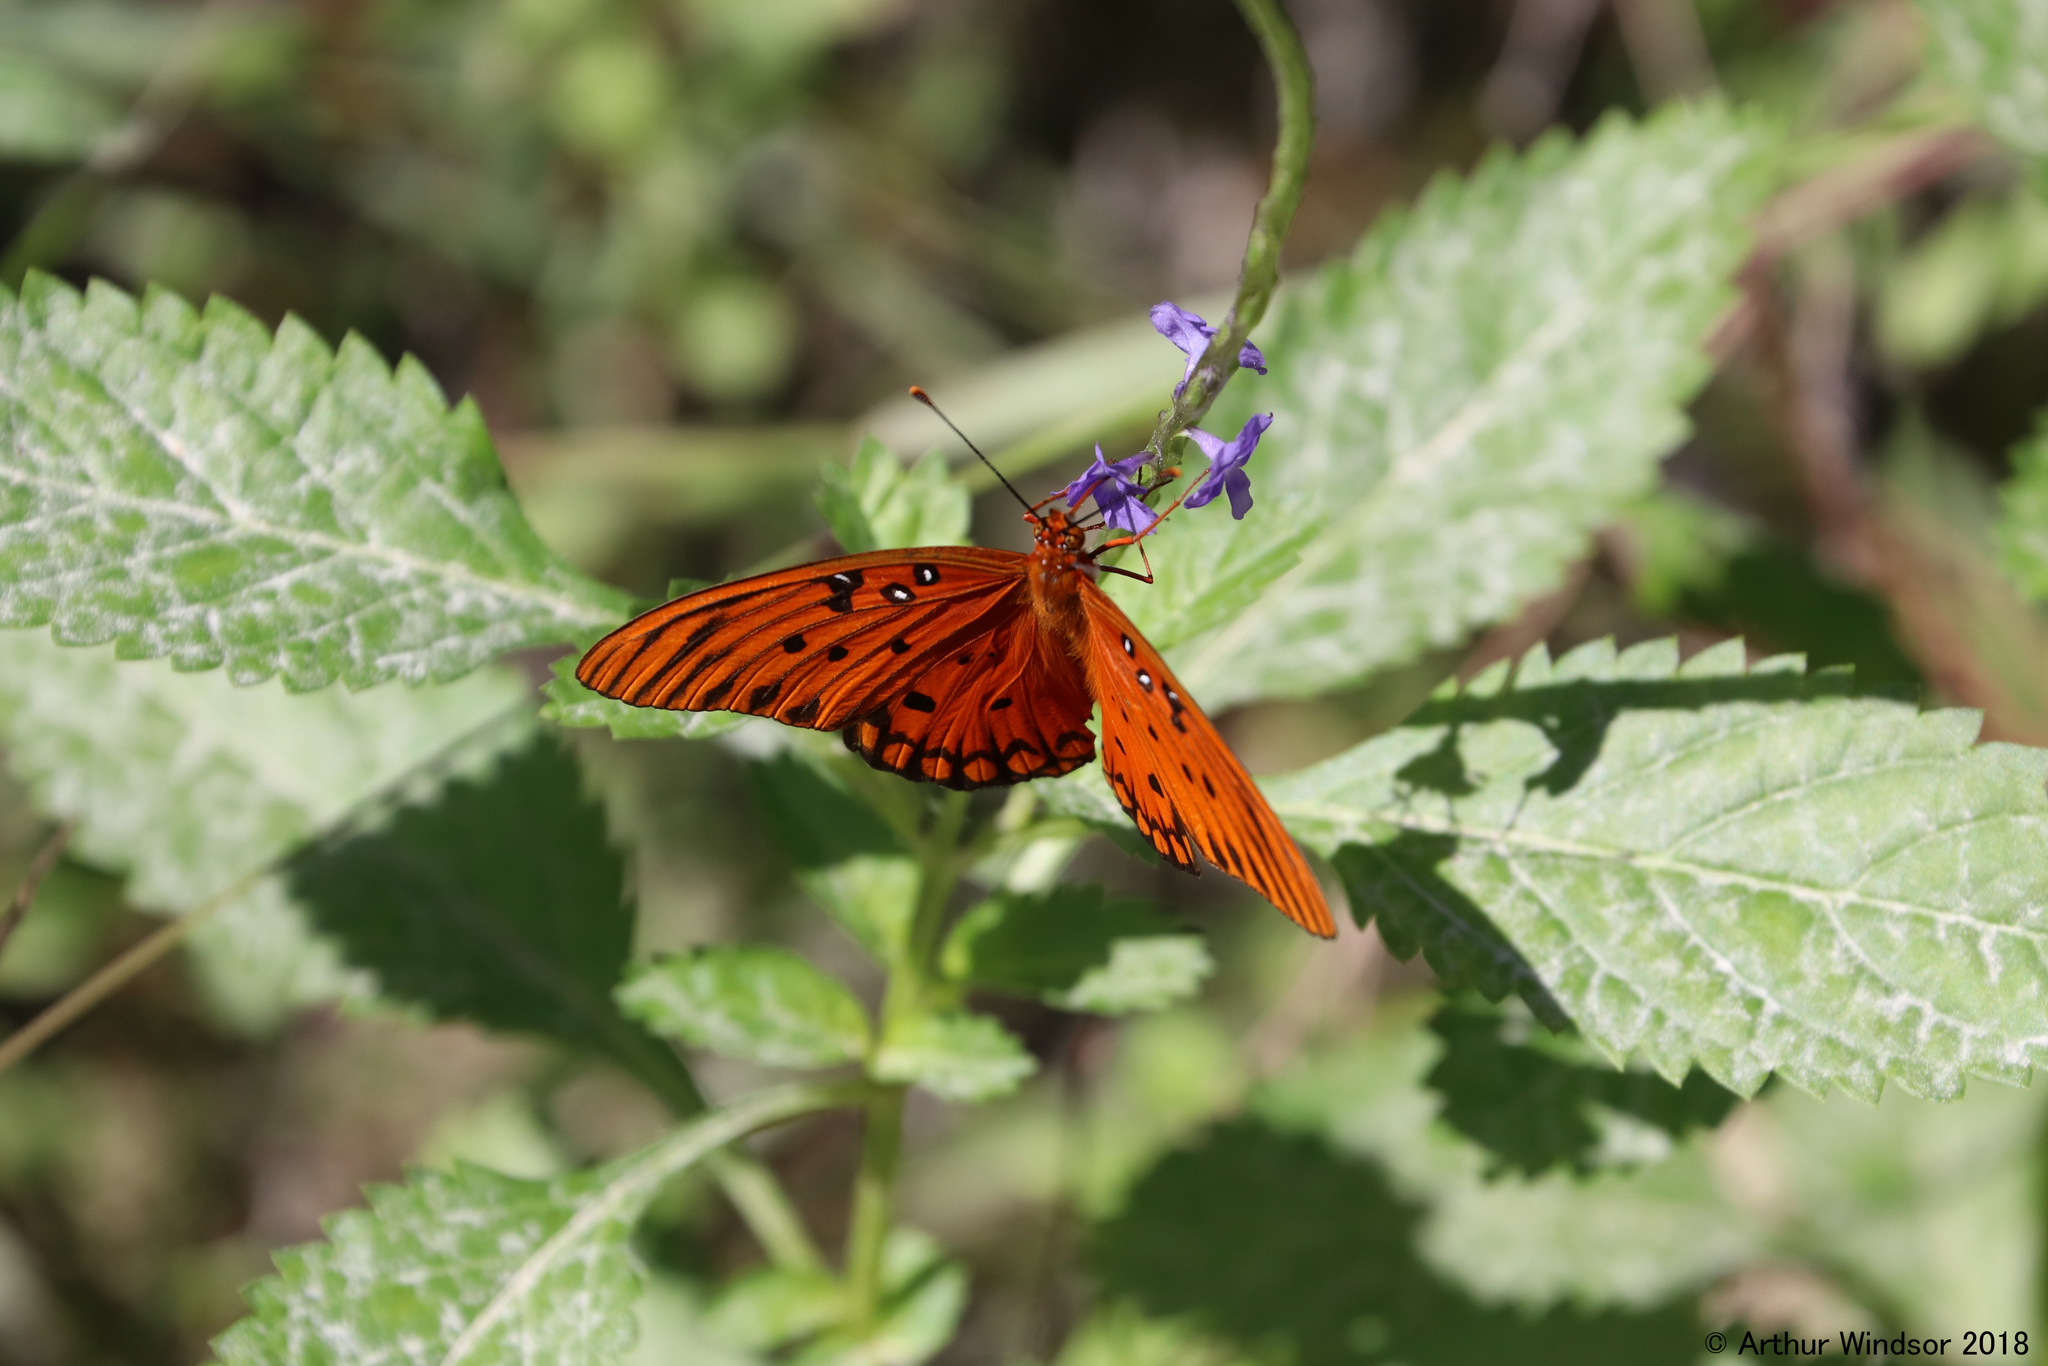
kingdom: Animalia
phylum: Arthropoda
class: Insecta
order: Lepidoptera
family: Nymphalidae
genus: Dione
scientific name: Dione vanillae
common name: Gulf fritillary
